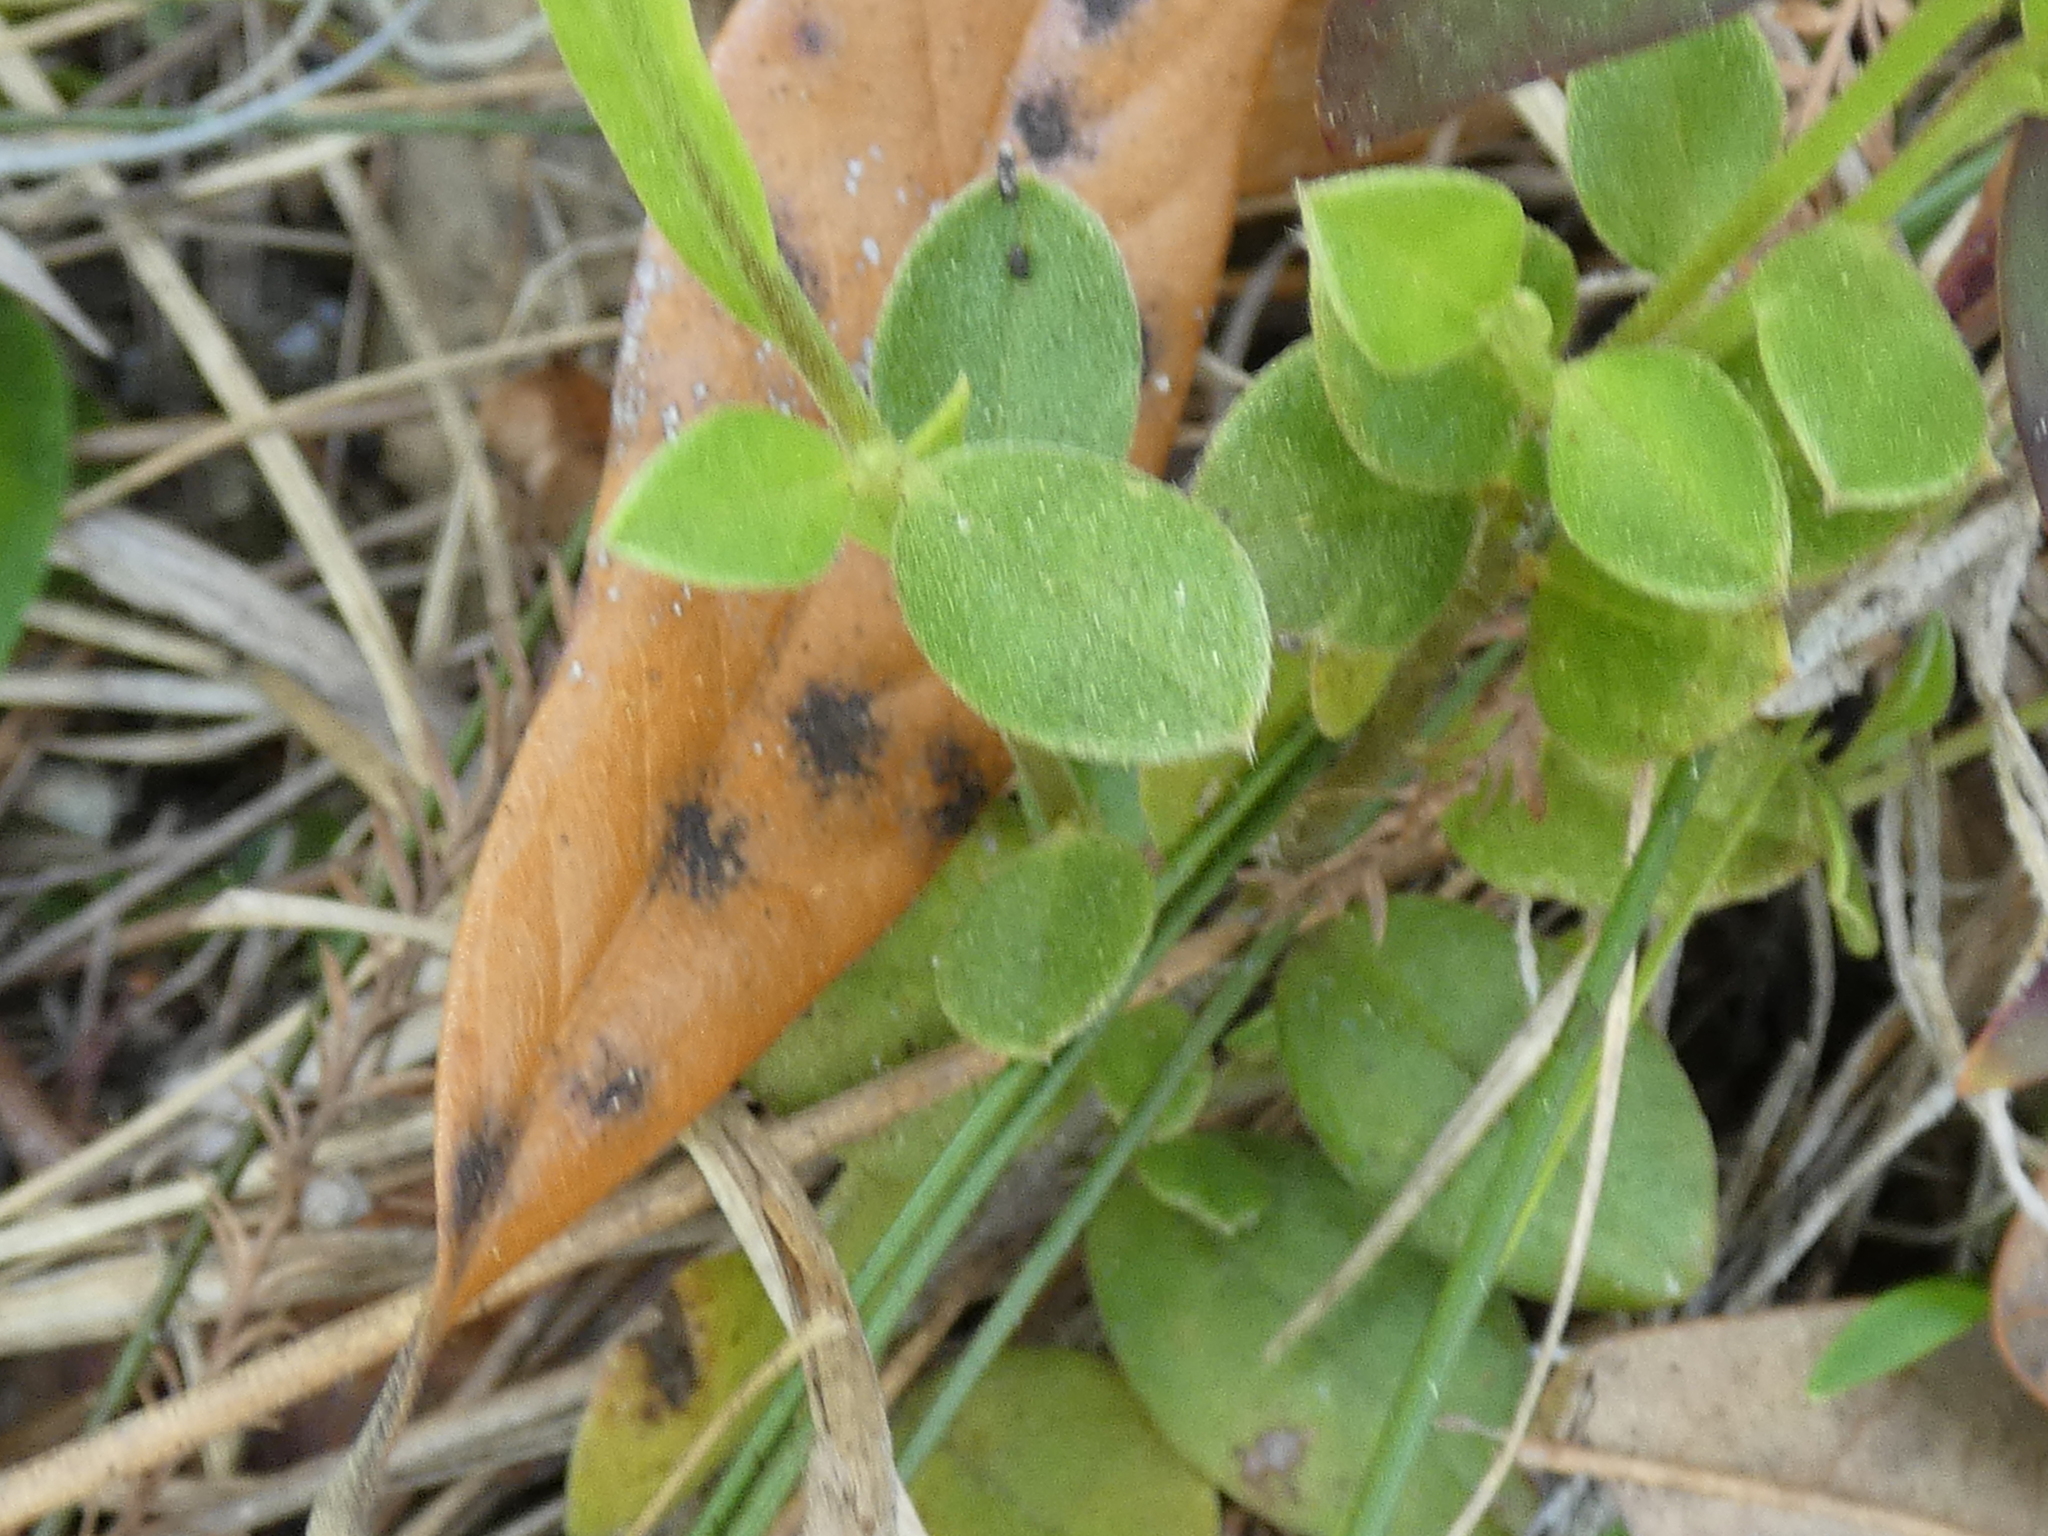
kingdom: Plantae
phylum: Tracheophyta
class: Magnoliopsida
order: Fabales
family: Fabaceae
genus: Crotalaria
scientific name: Crotalaria rotundifolia
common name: Prostrate rattlebox
